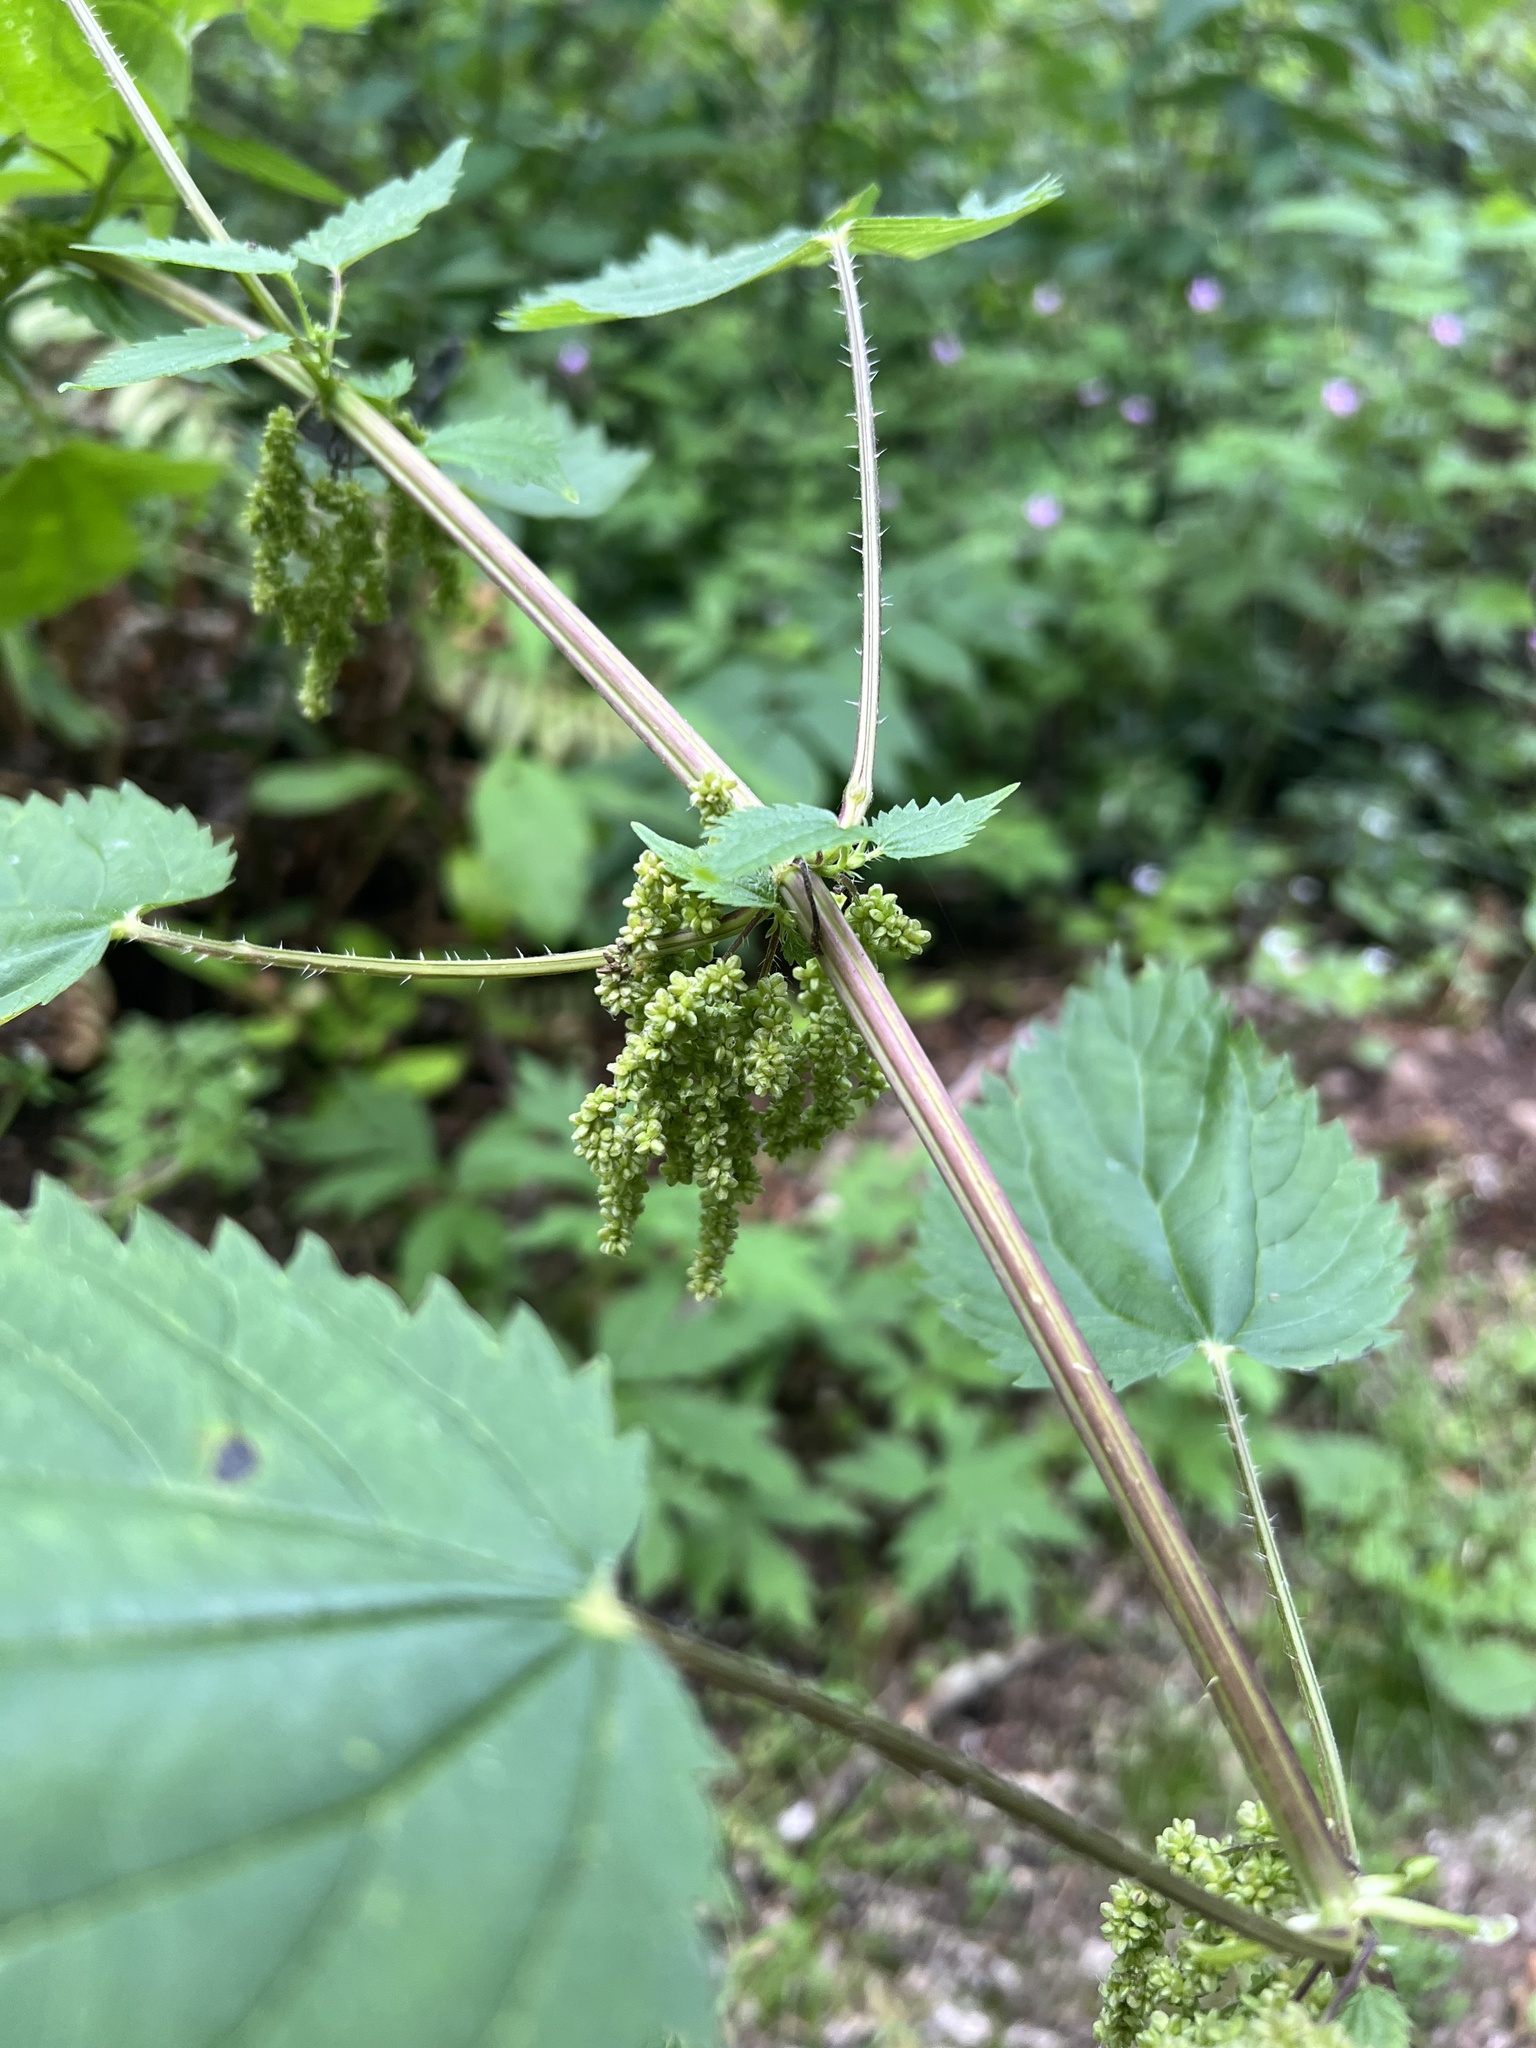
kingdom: Plantae
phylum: Tracheophyta
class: Magnoliopsida
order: Rosales
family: Urticaceae
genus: Urtica
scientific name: Urtica gracilis
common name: Slender stinging nettle
